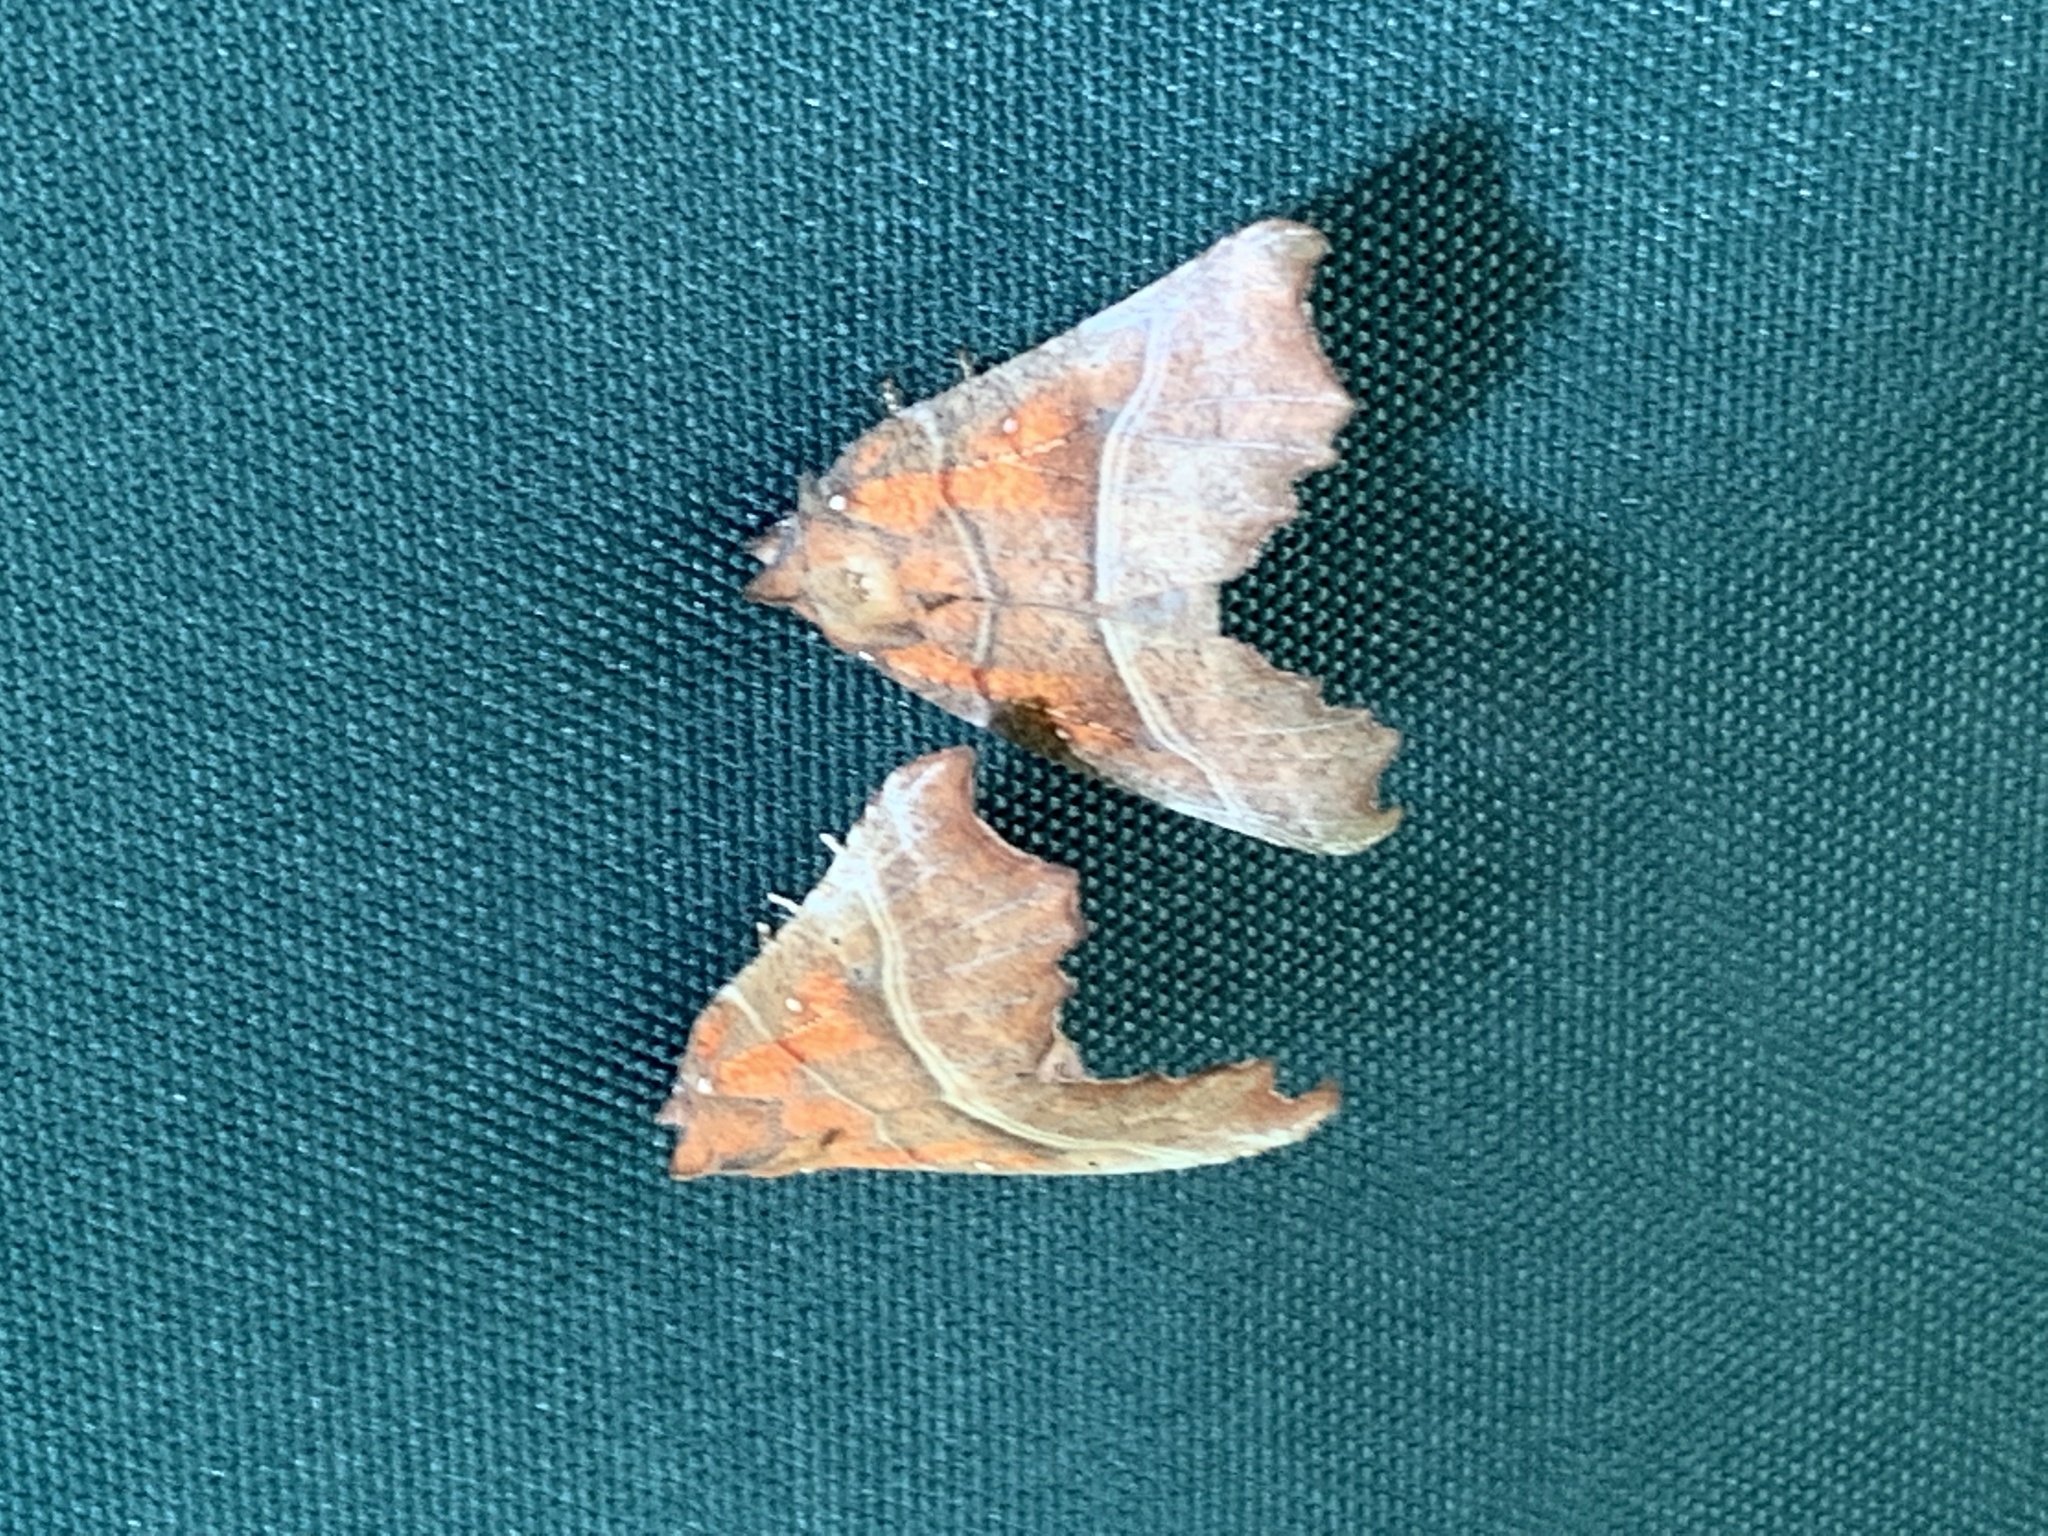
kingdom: Animalia
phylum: Arthropoda
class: Insecta
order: Lepidoptera
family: Erebidae
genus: Scoliopteryx
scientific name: Scoliopteryx libatrix
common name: Herald
